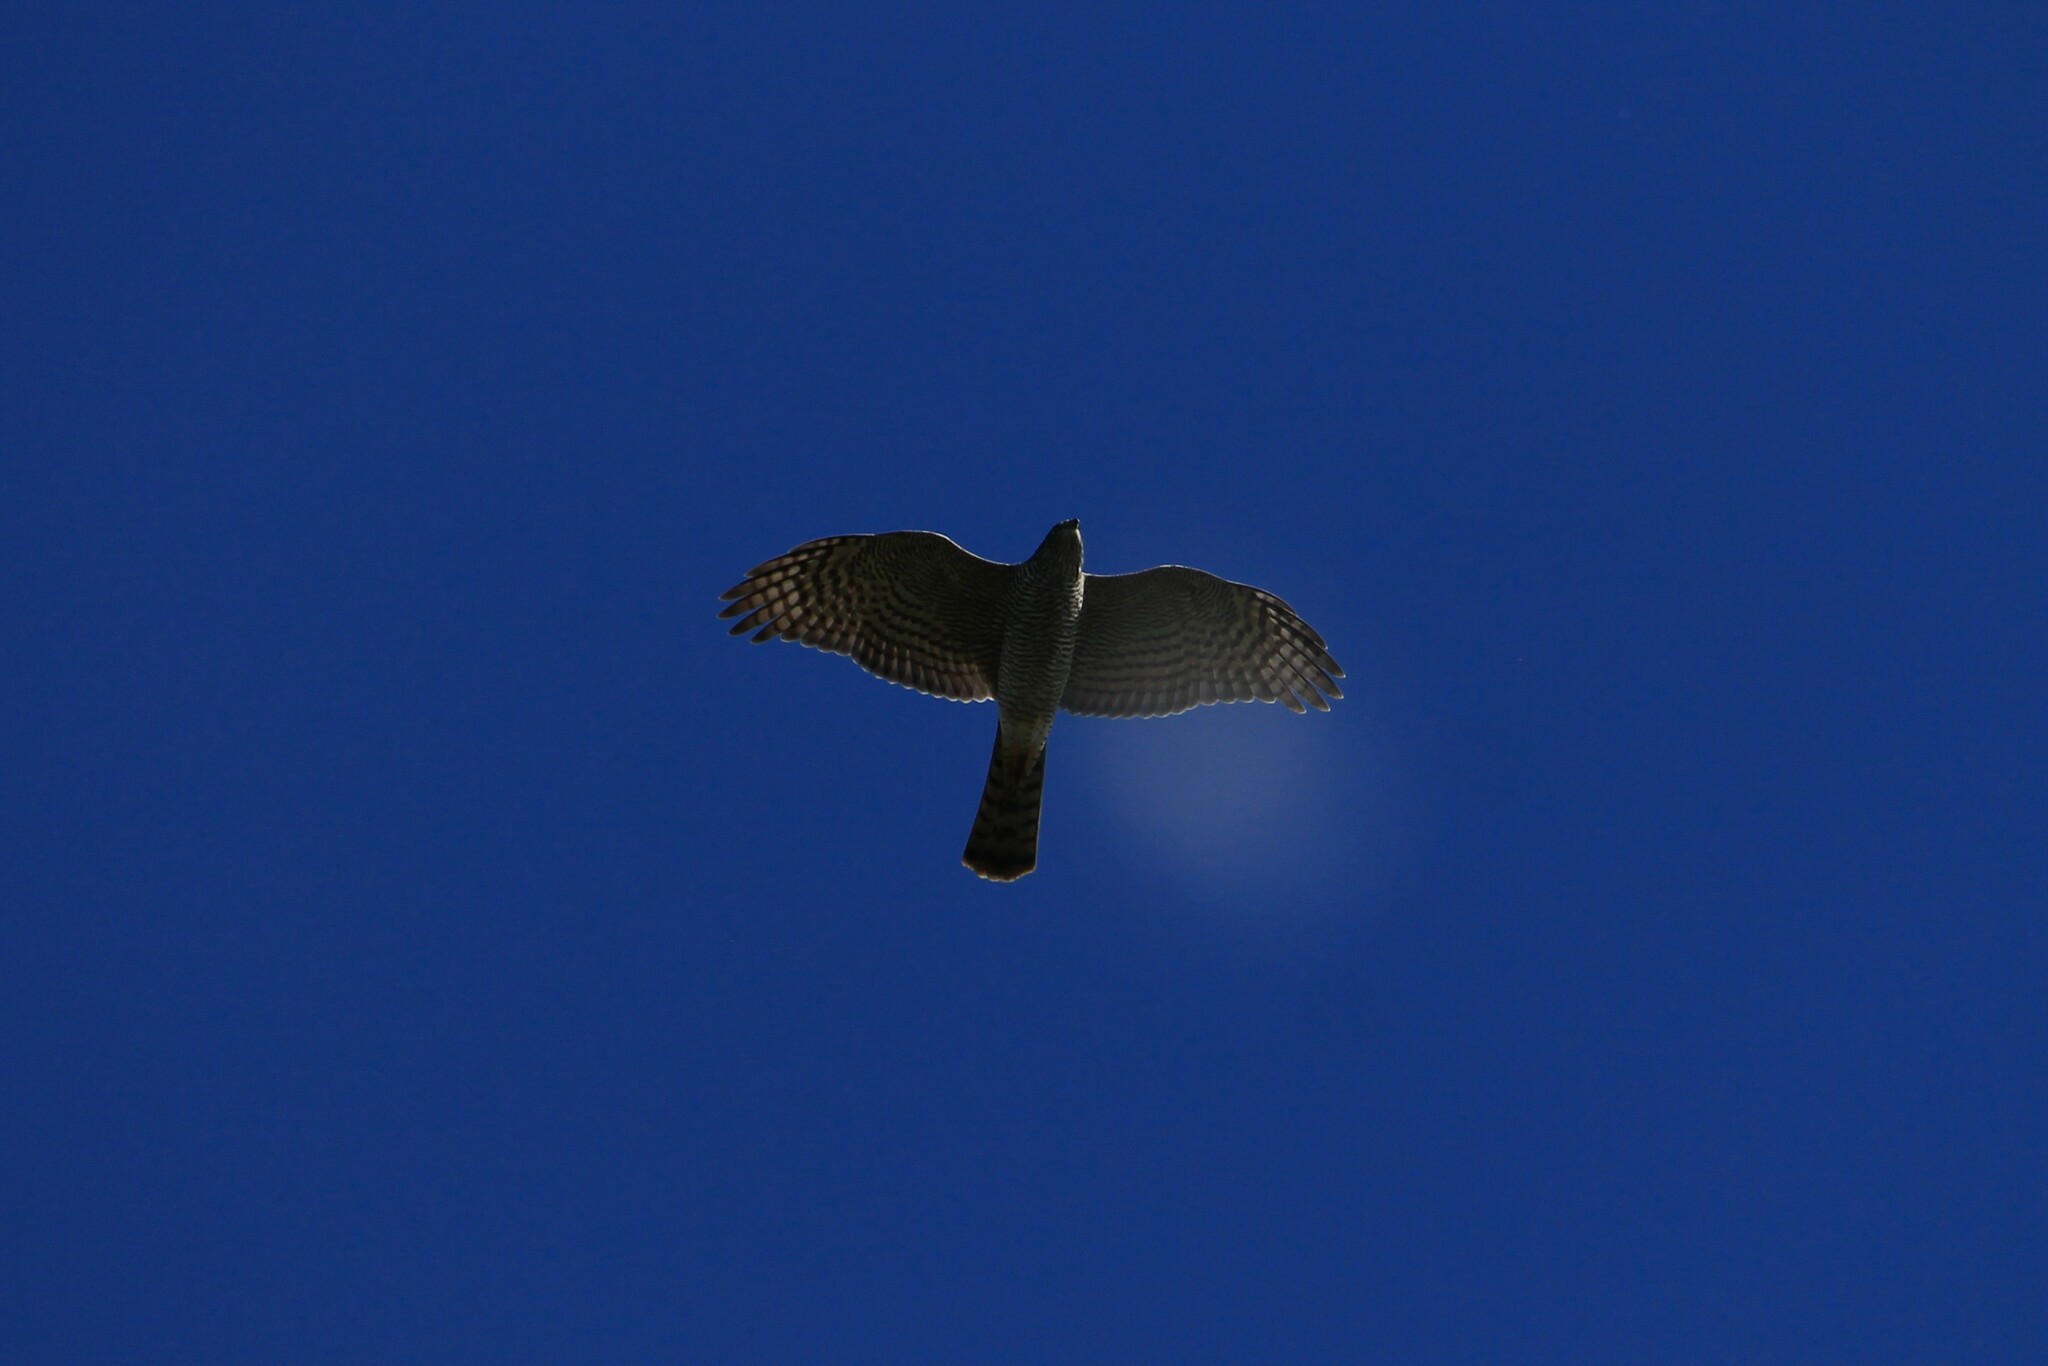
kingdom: Animalia
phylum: Chordata
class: Aves
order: Accipitriformes
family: Accipitridae
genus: Accipiter
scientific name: Accipiter nisus
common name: Eurasian sparrowhawk
